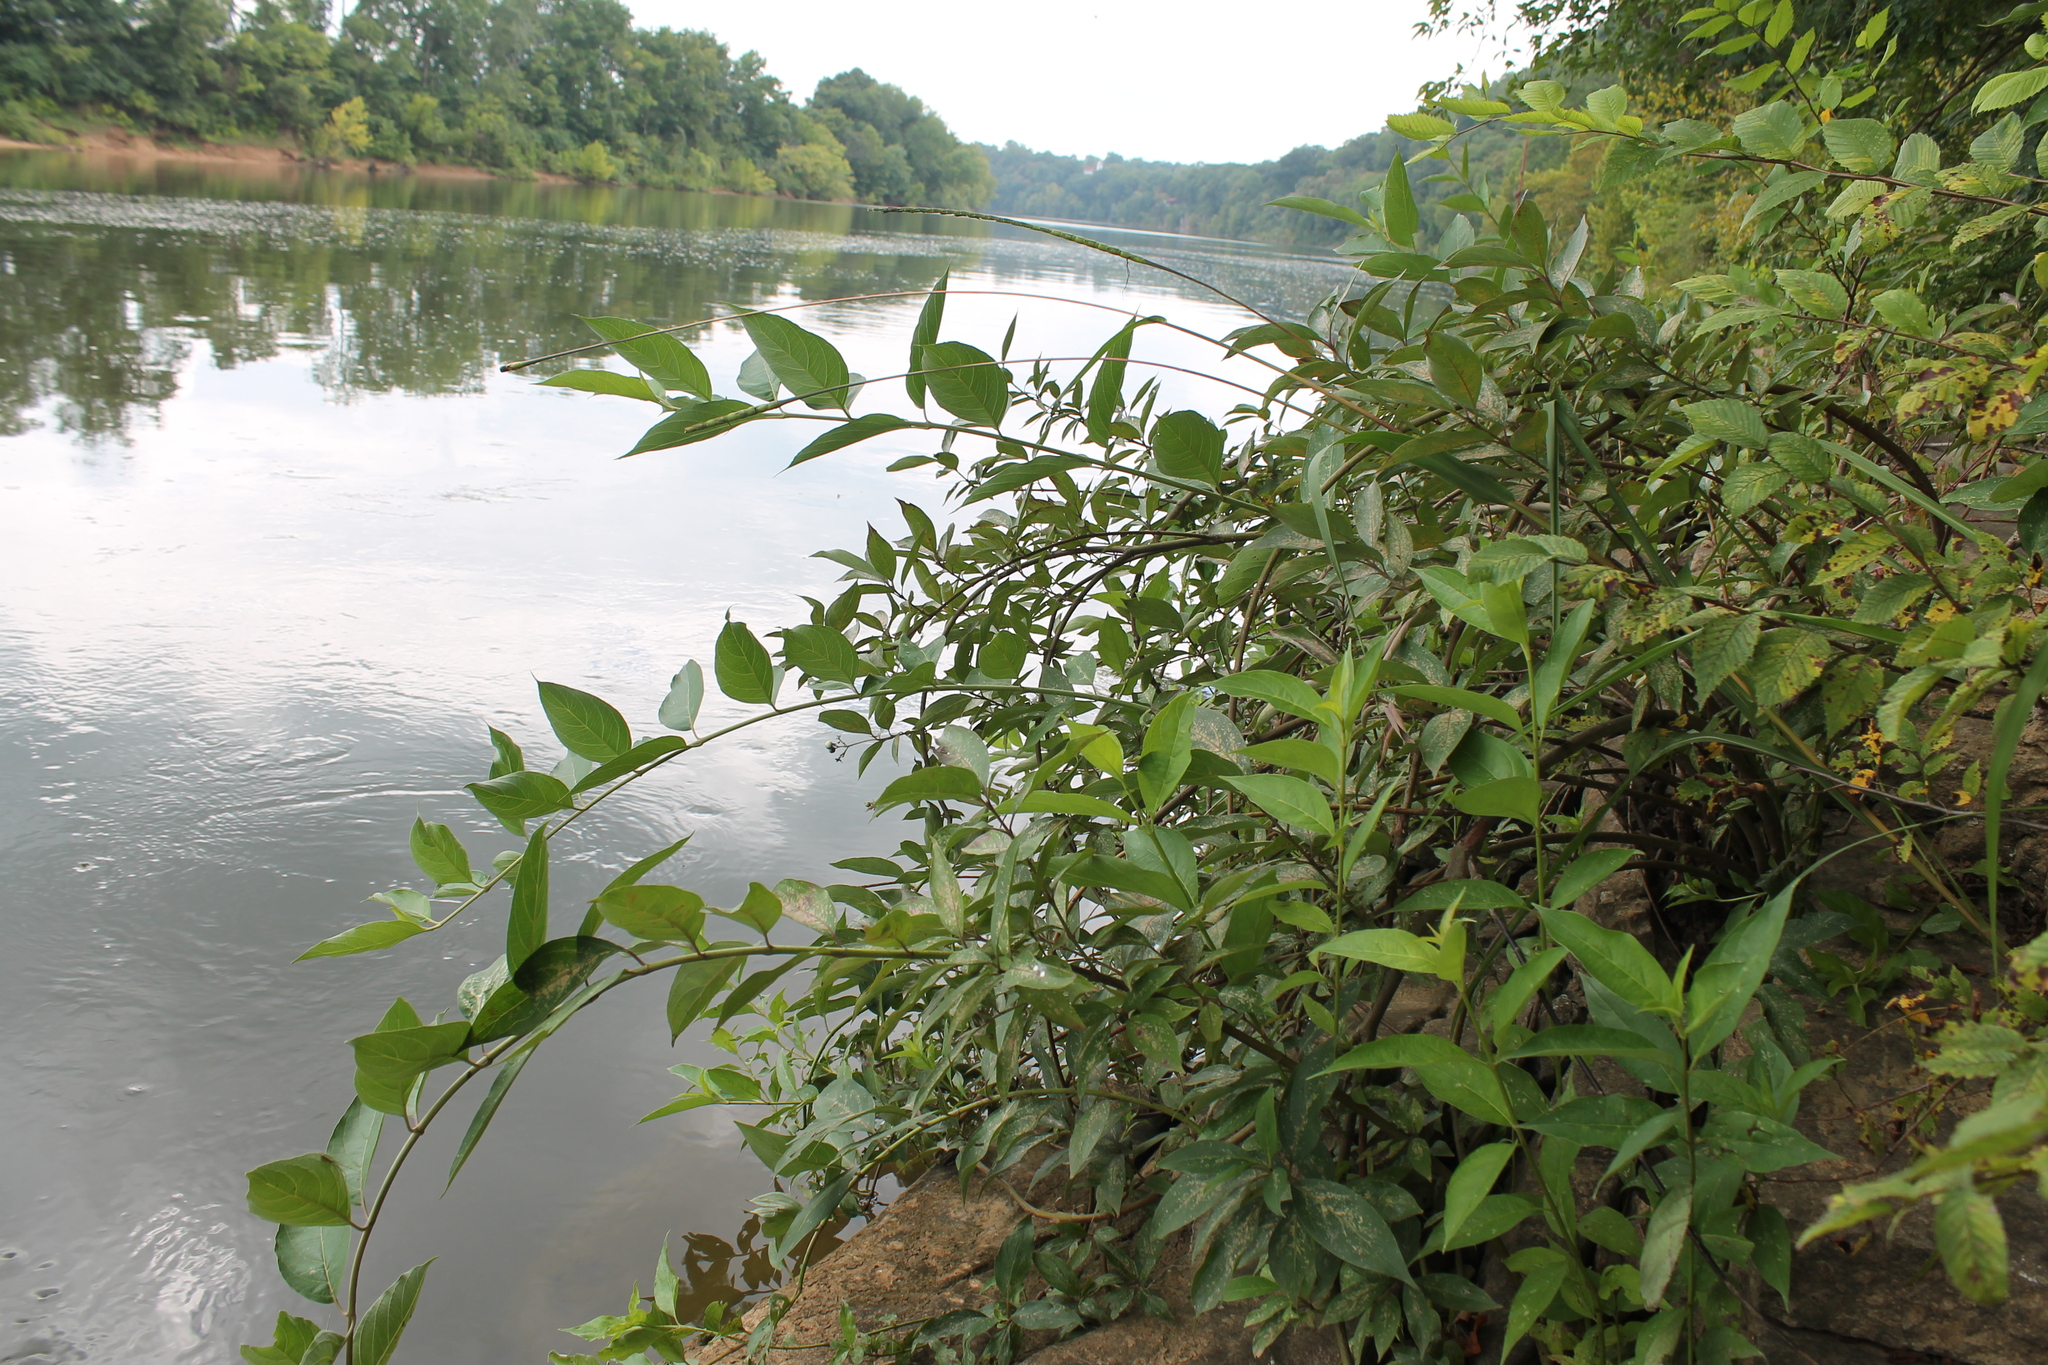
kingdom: Plantae
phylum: Tracheophyta
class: Magnoliopsida
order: Cornales
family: Cornaceae
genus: Cornus
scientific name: Cornus obliqua
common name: Pale dogwood
